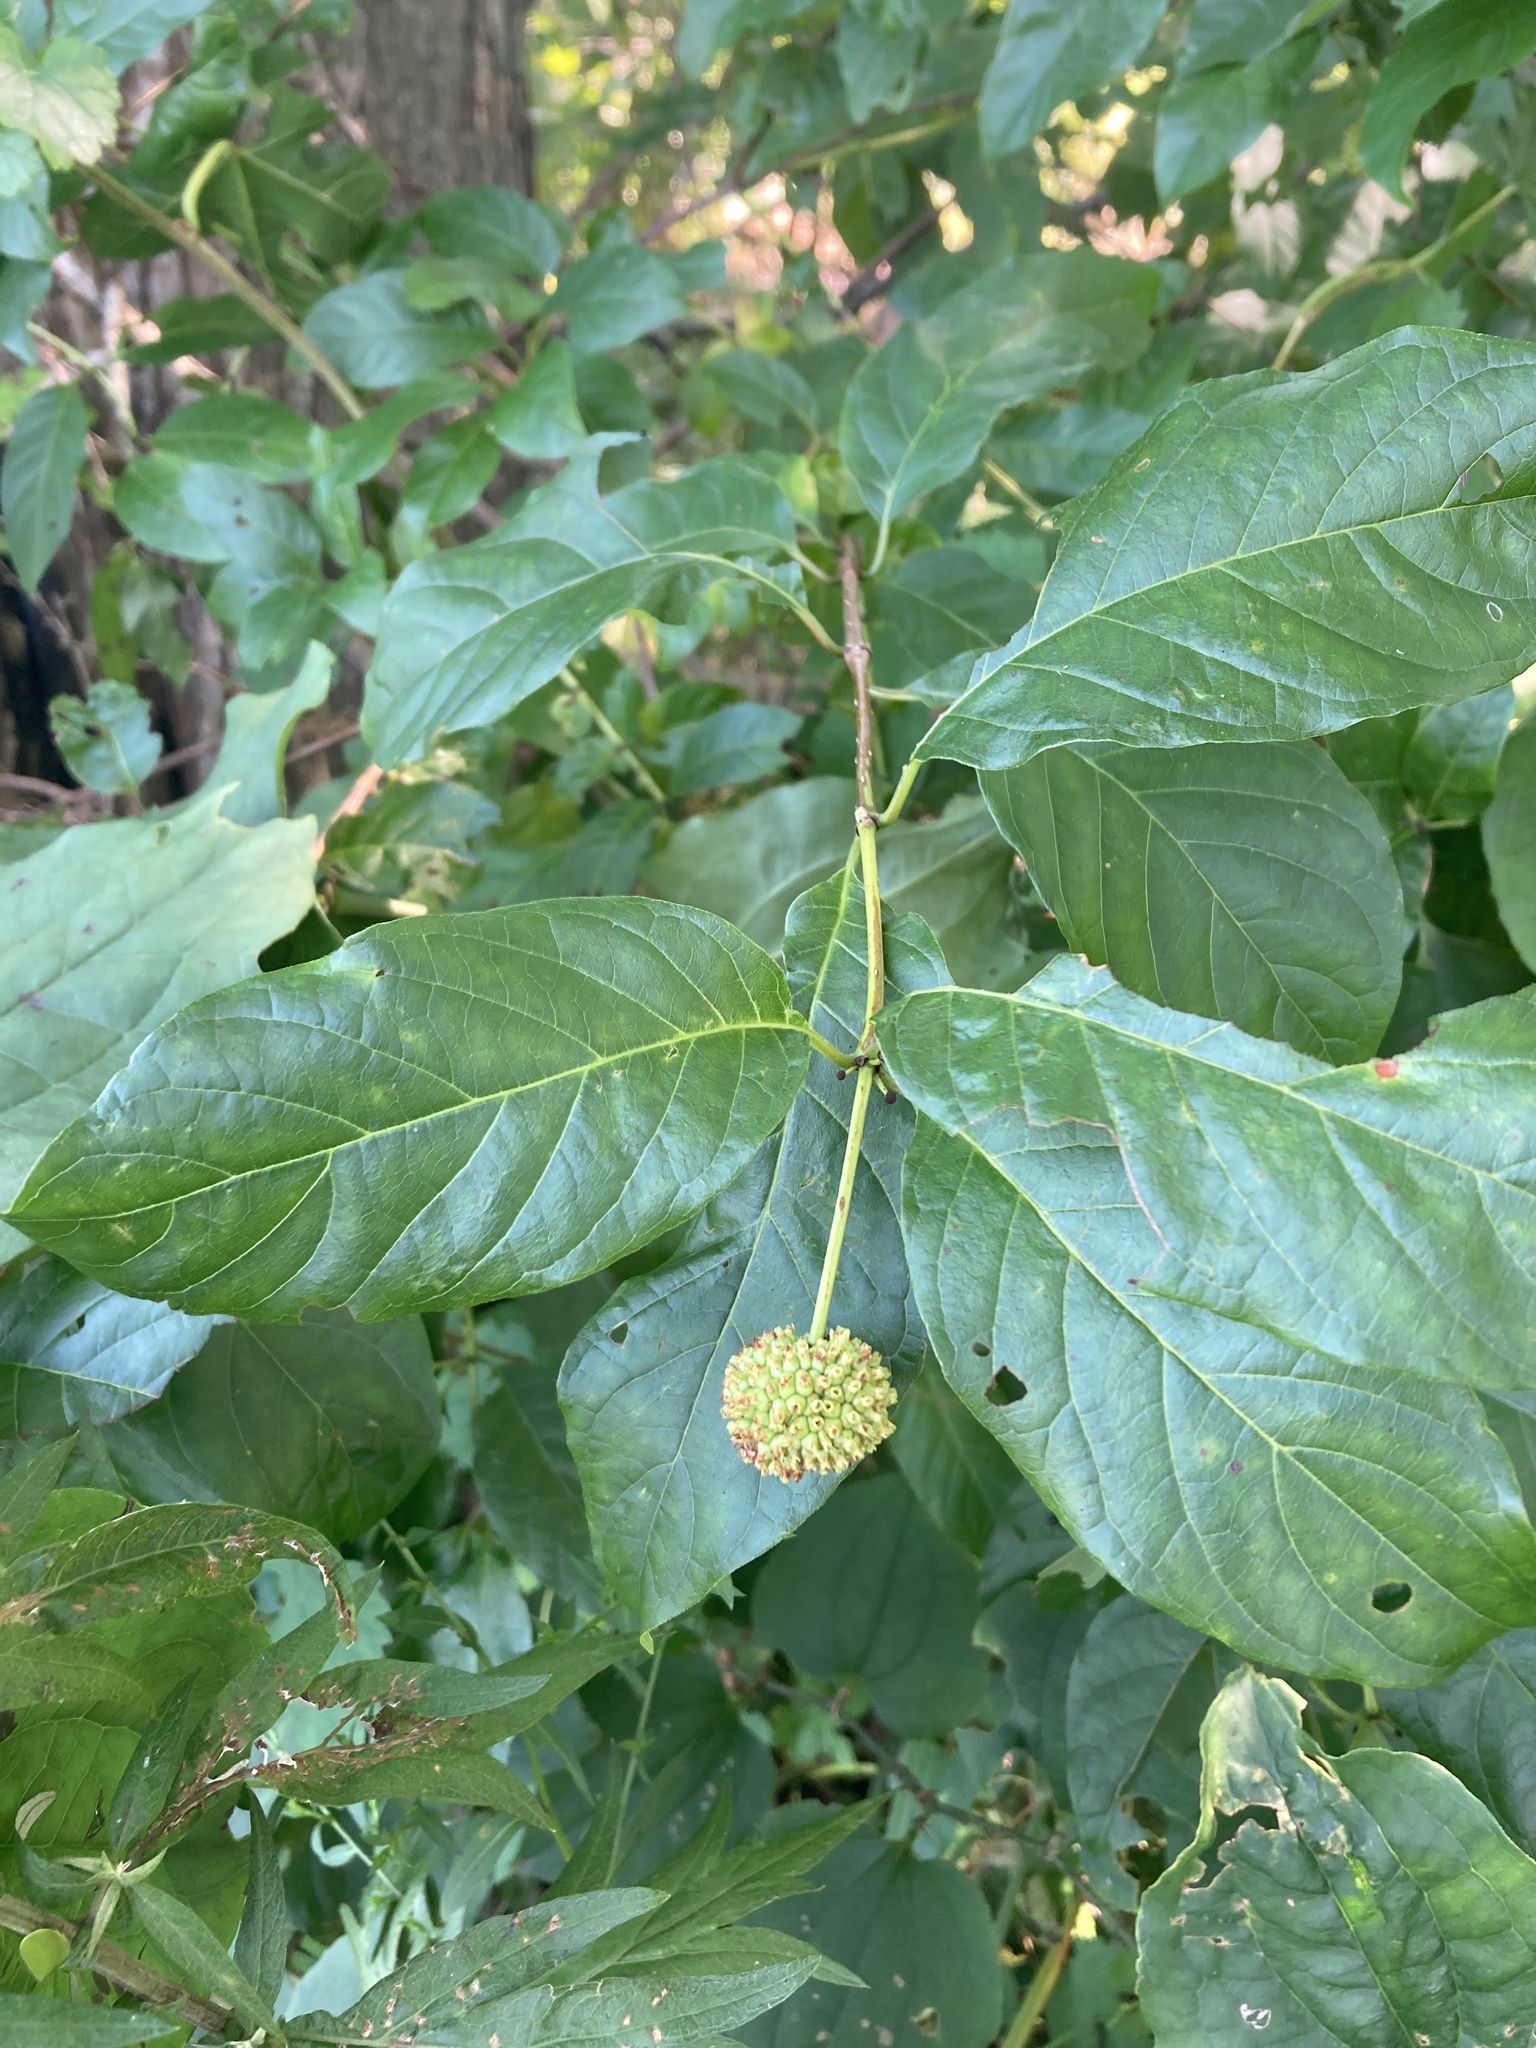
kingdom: Plantae
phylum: Tracheophyta
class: Magnoliopsida
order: Gentianales
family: Rubiaceae
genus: Cephalanthus
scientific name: Cephalanthus occidentalis
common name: Button-willow
